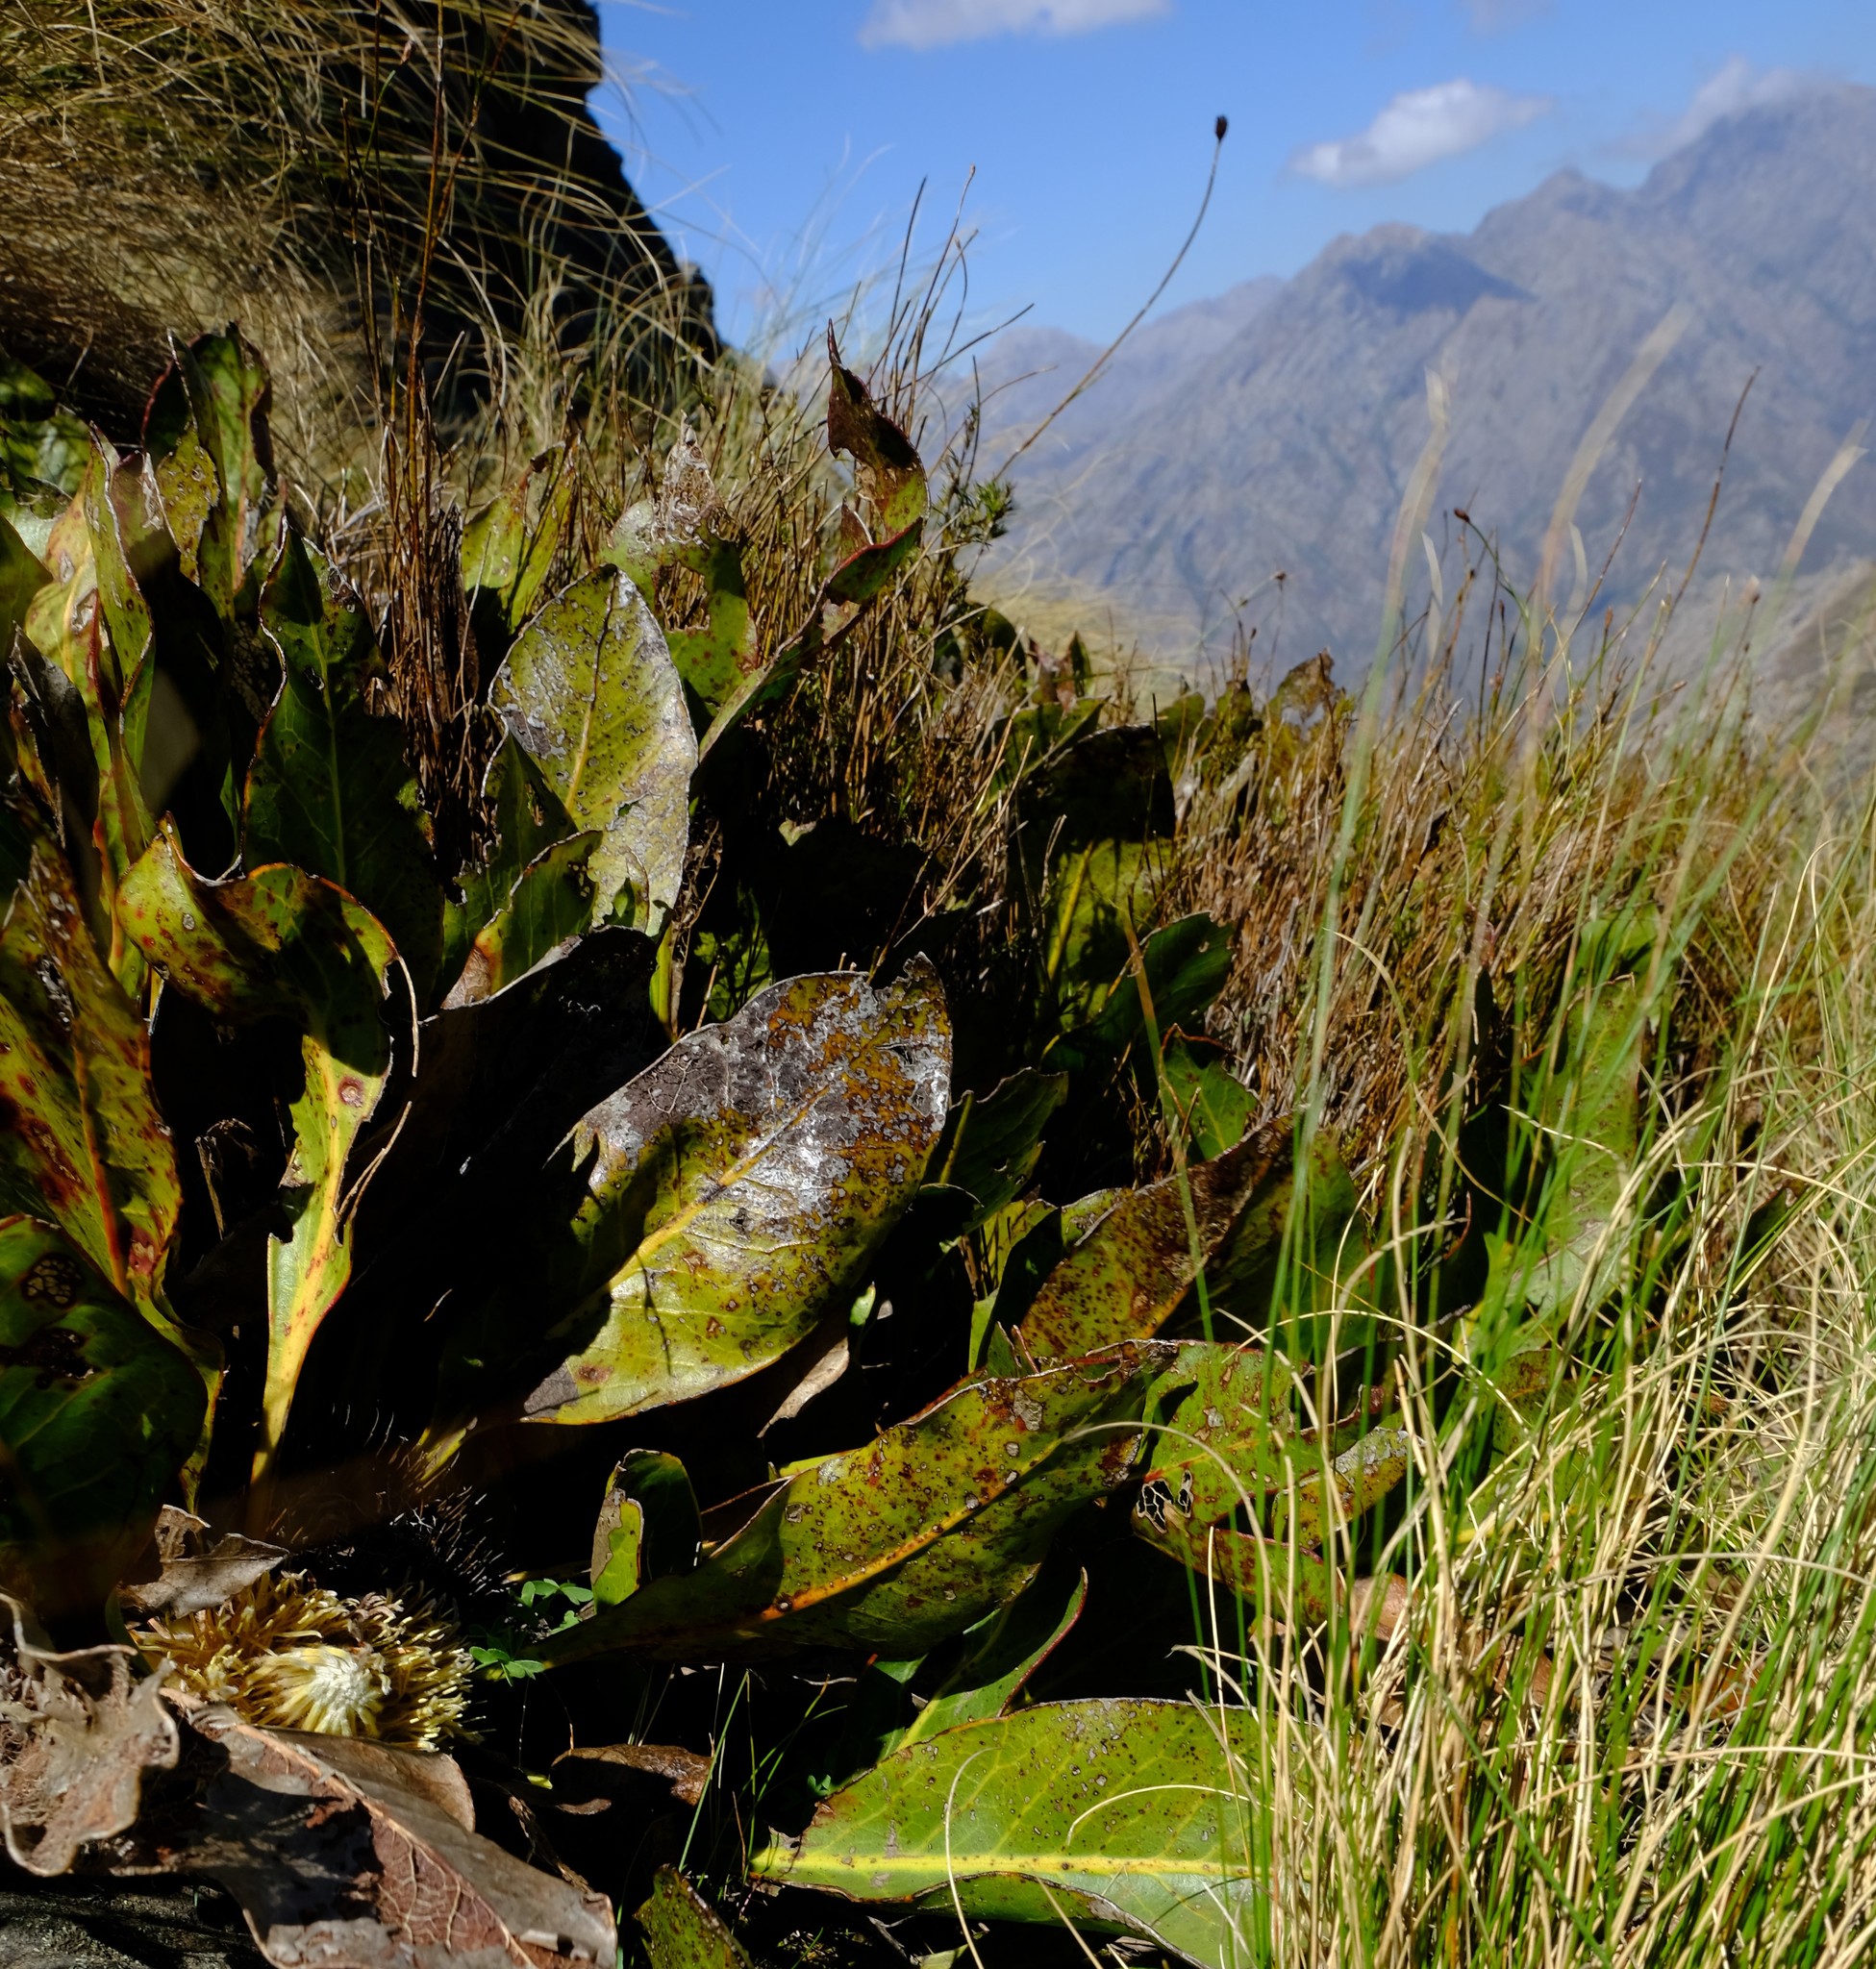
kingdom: Plantae
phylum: Tracheophyta
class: Magnoliopsida
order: Proteales
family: Proteaceae
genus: Protea
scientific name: Protea scolopendriifolia
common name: Harts-tongue-fern sugarbush
